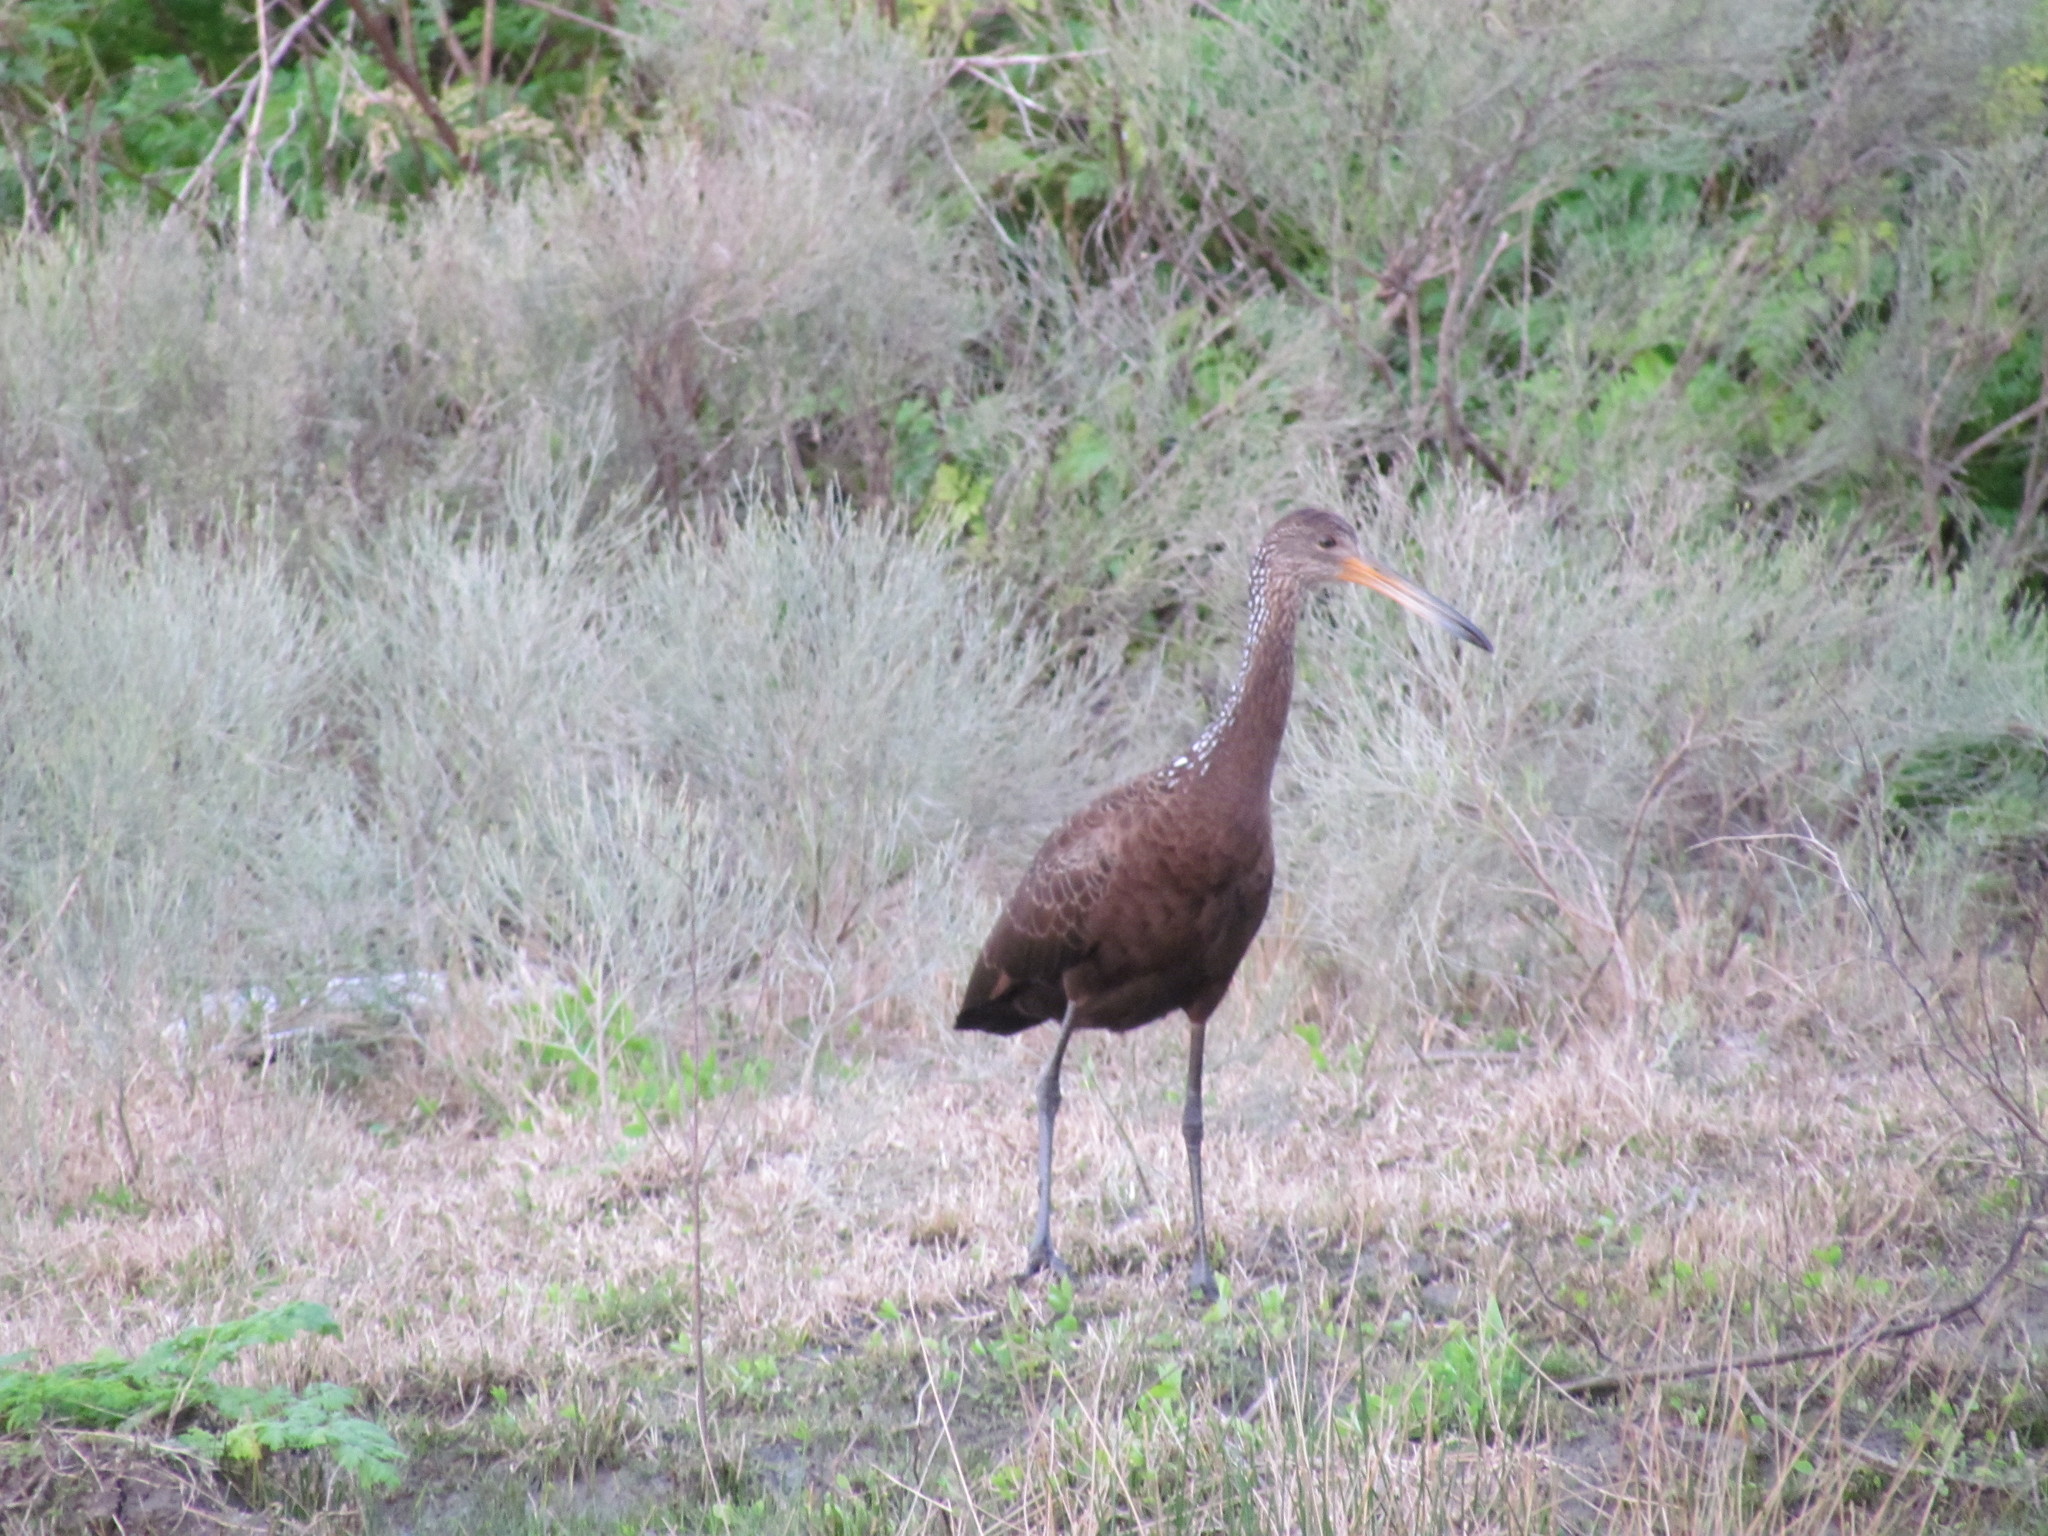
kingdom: Animalia
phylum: Chordata
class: Aves
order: Gruiformes
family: Aramidae
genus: Aramus
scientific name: Aramus guarauna
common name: Limpkin
